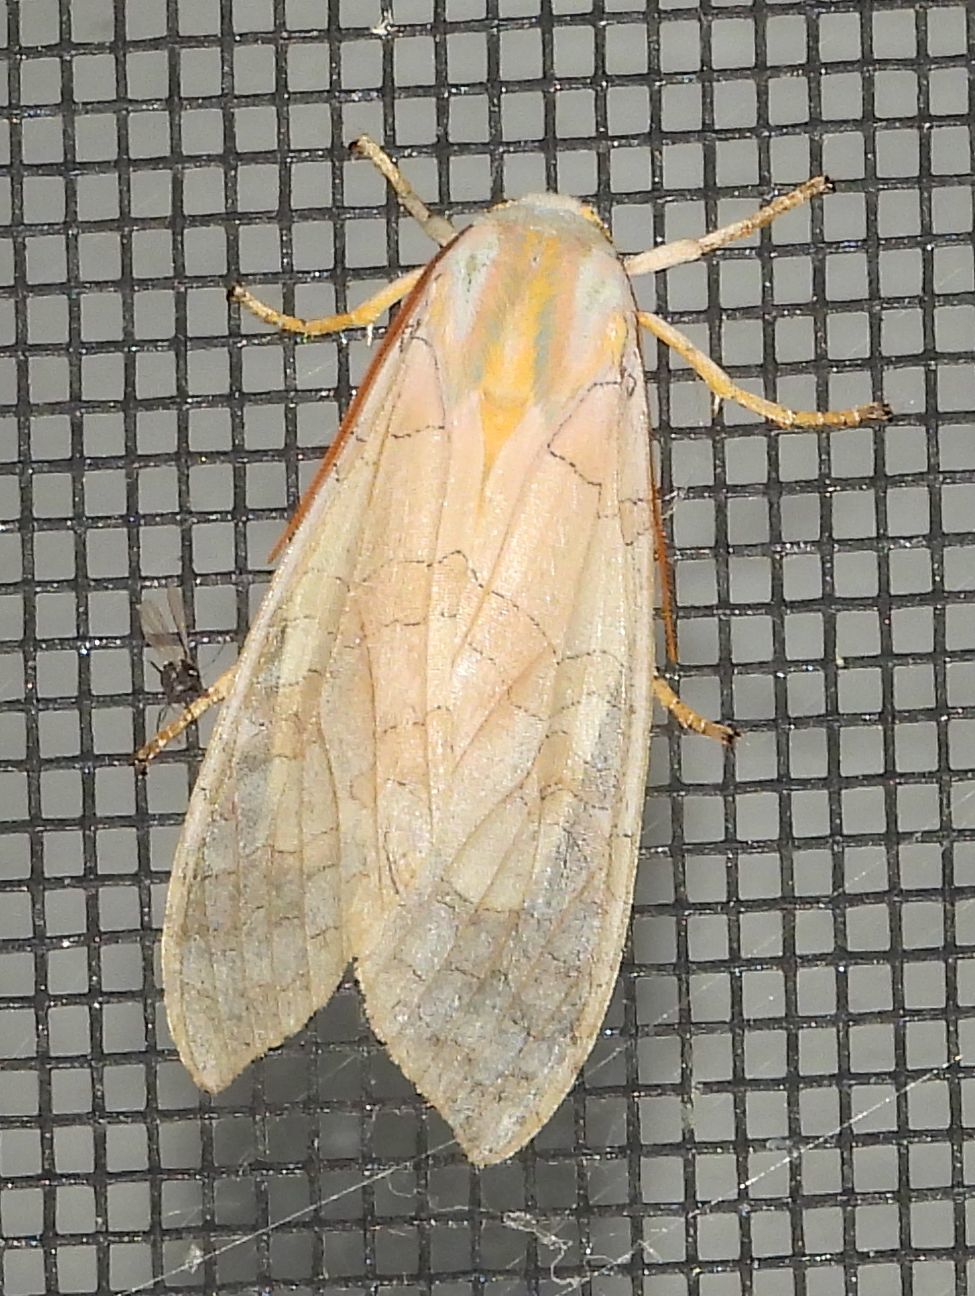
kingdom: Animalia
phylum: Arthropoda
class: Insecta
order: Lepidoptera
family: Erebidae
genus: Halysidota
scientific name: Halysidota tessellaris
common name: Banded tussock moth
